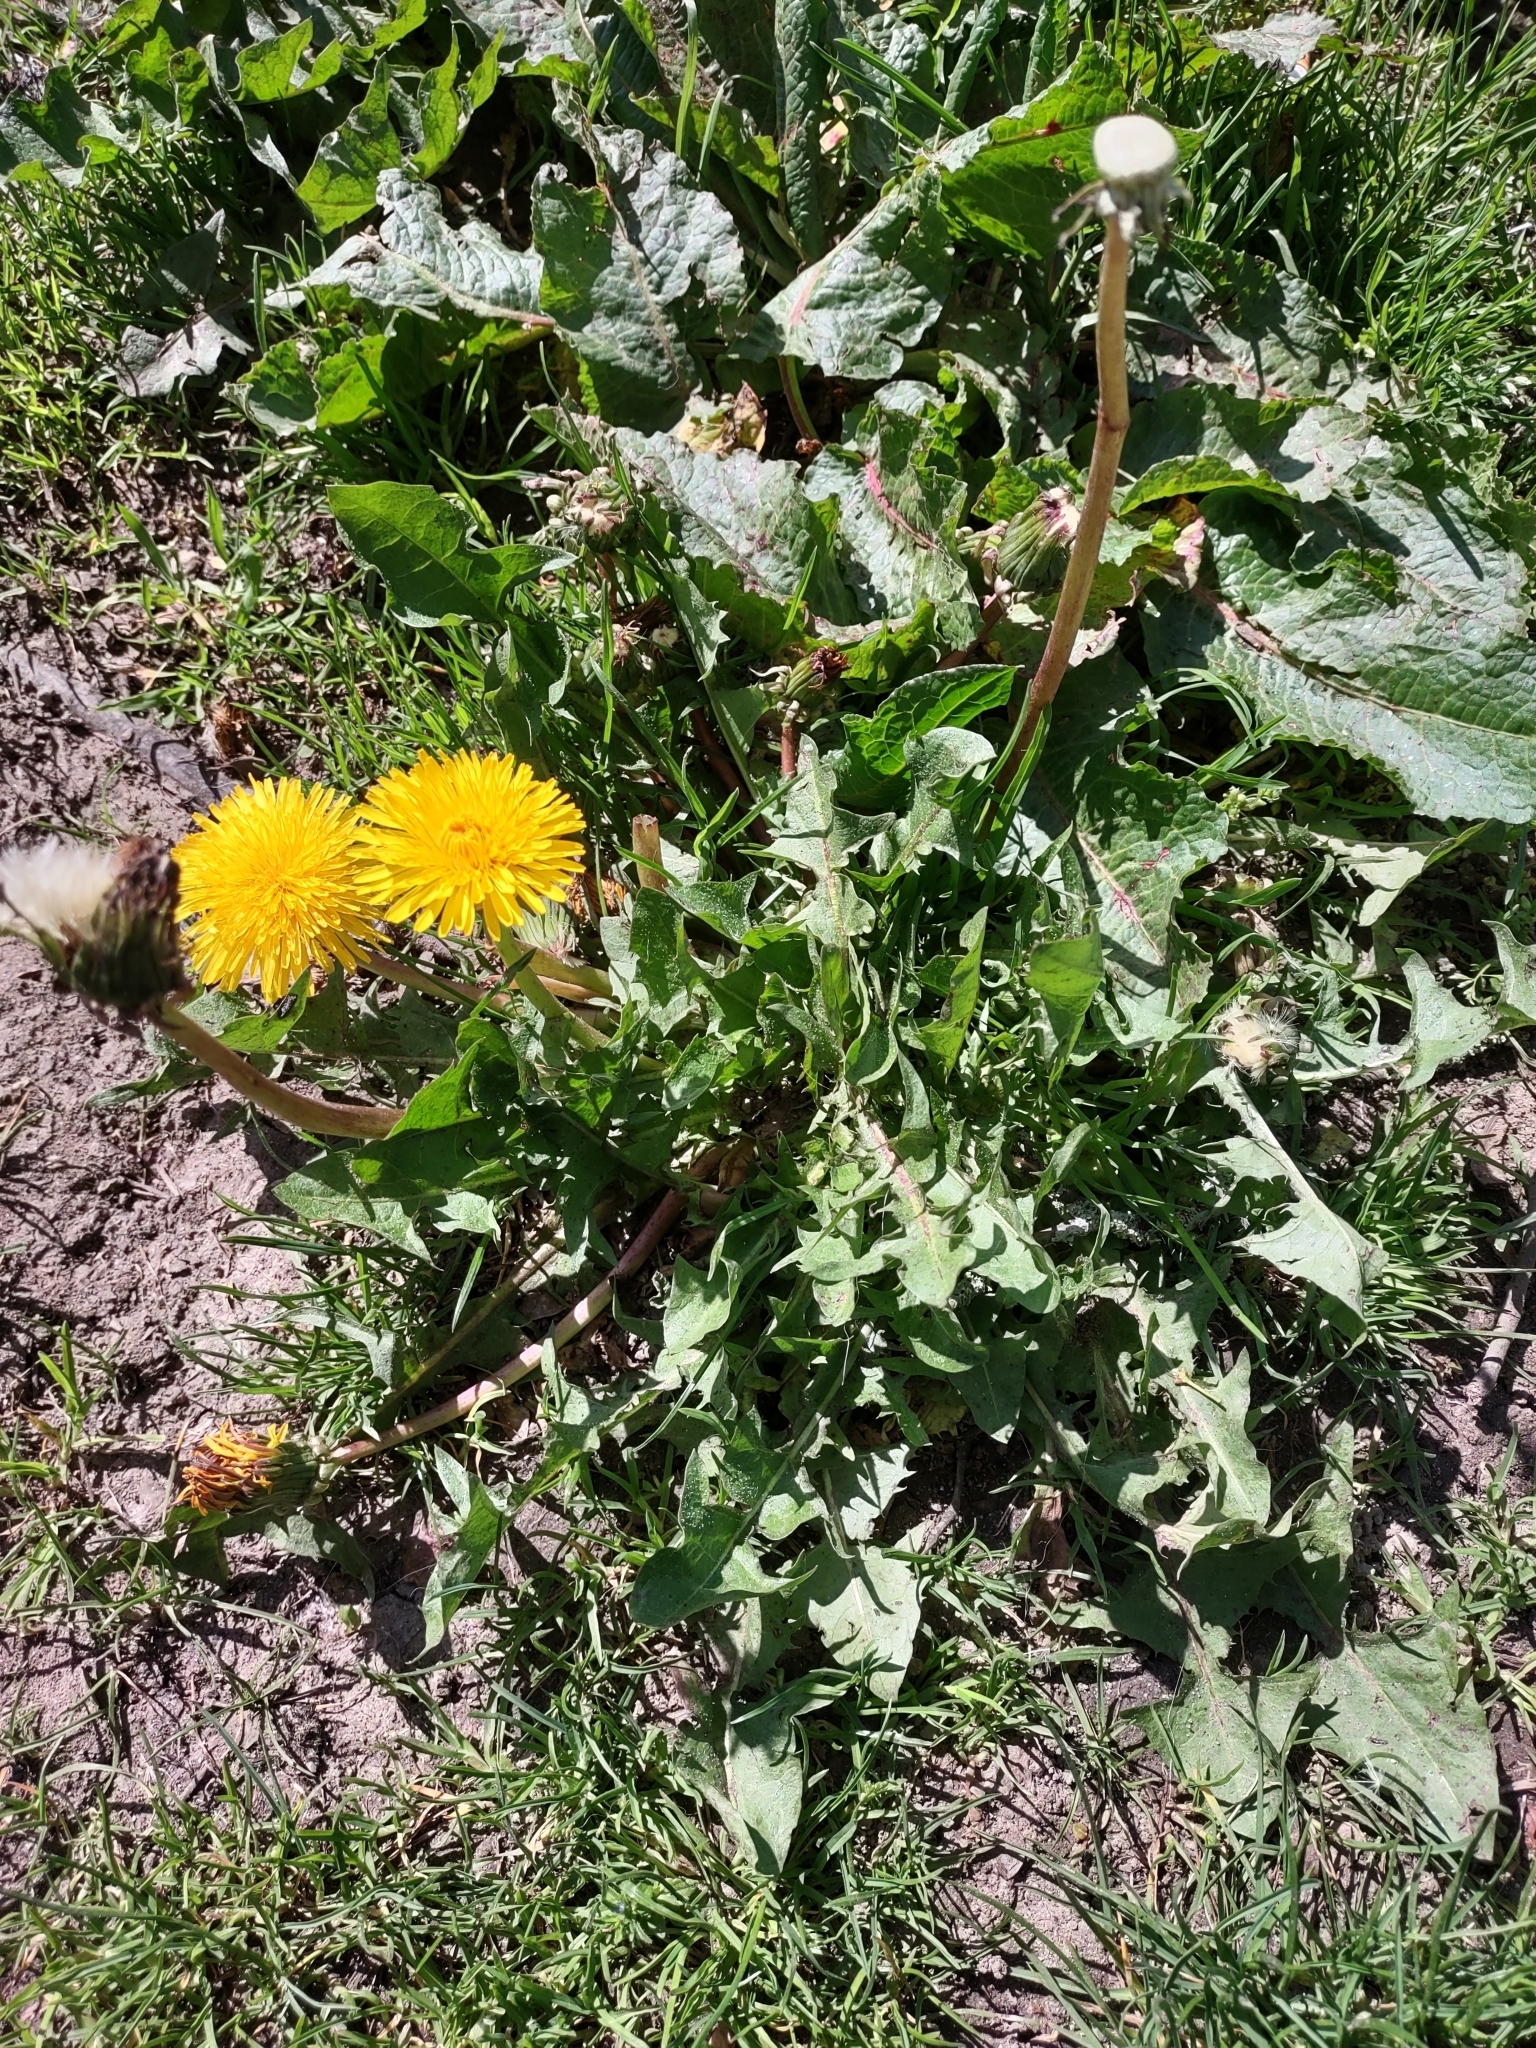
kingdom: Plantae
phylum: Tracheophyta
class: Magnoliopsida
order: Asterales
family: Asteraceae
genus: Taraxacum
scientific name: Taraxacum officinale
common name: Common dandelion
